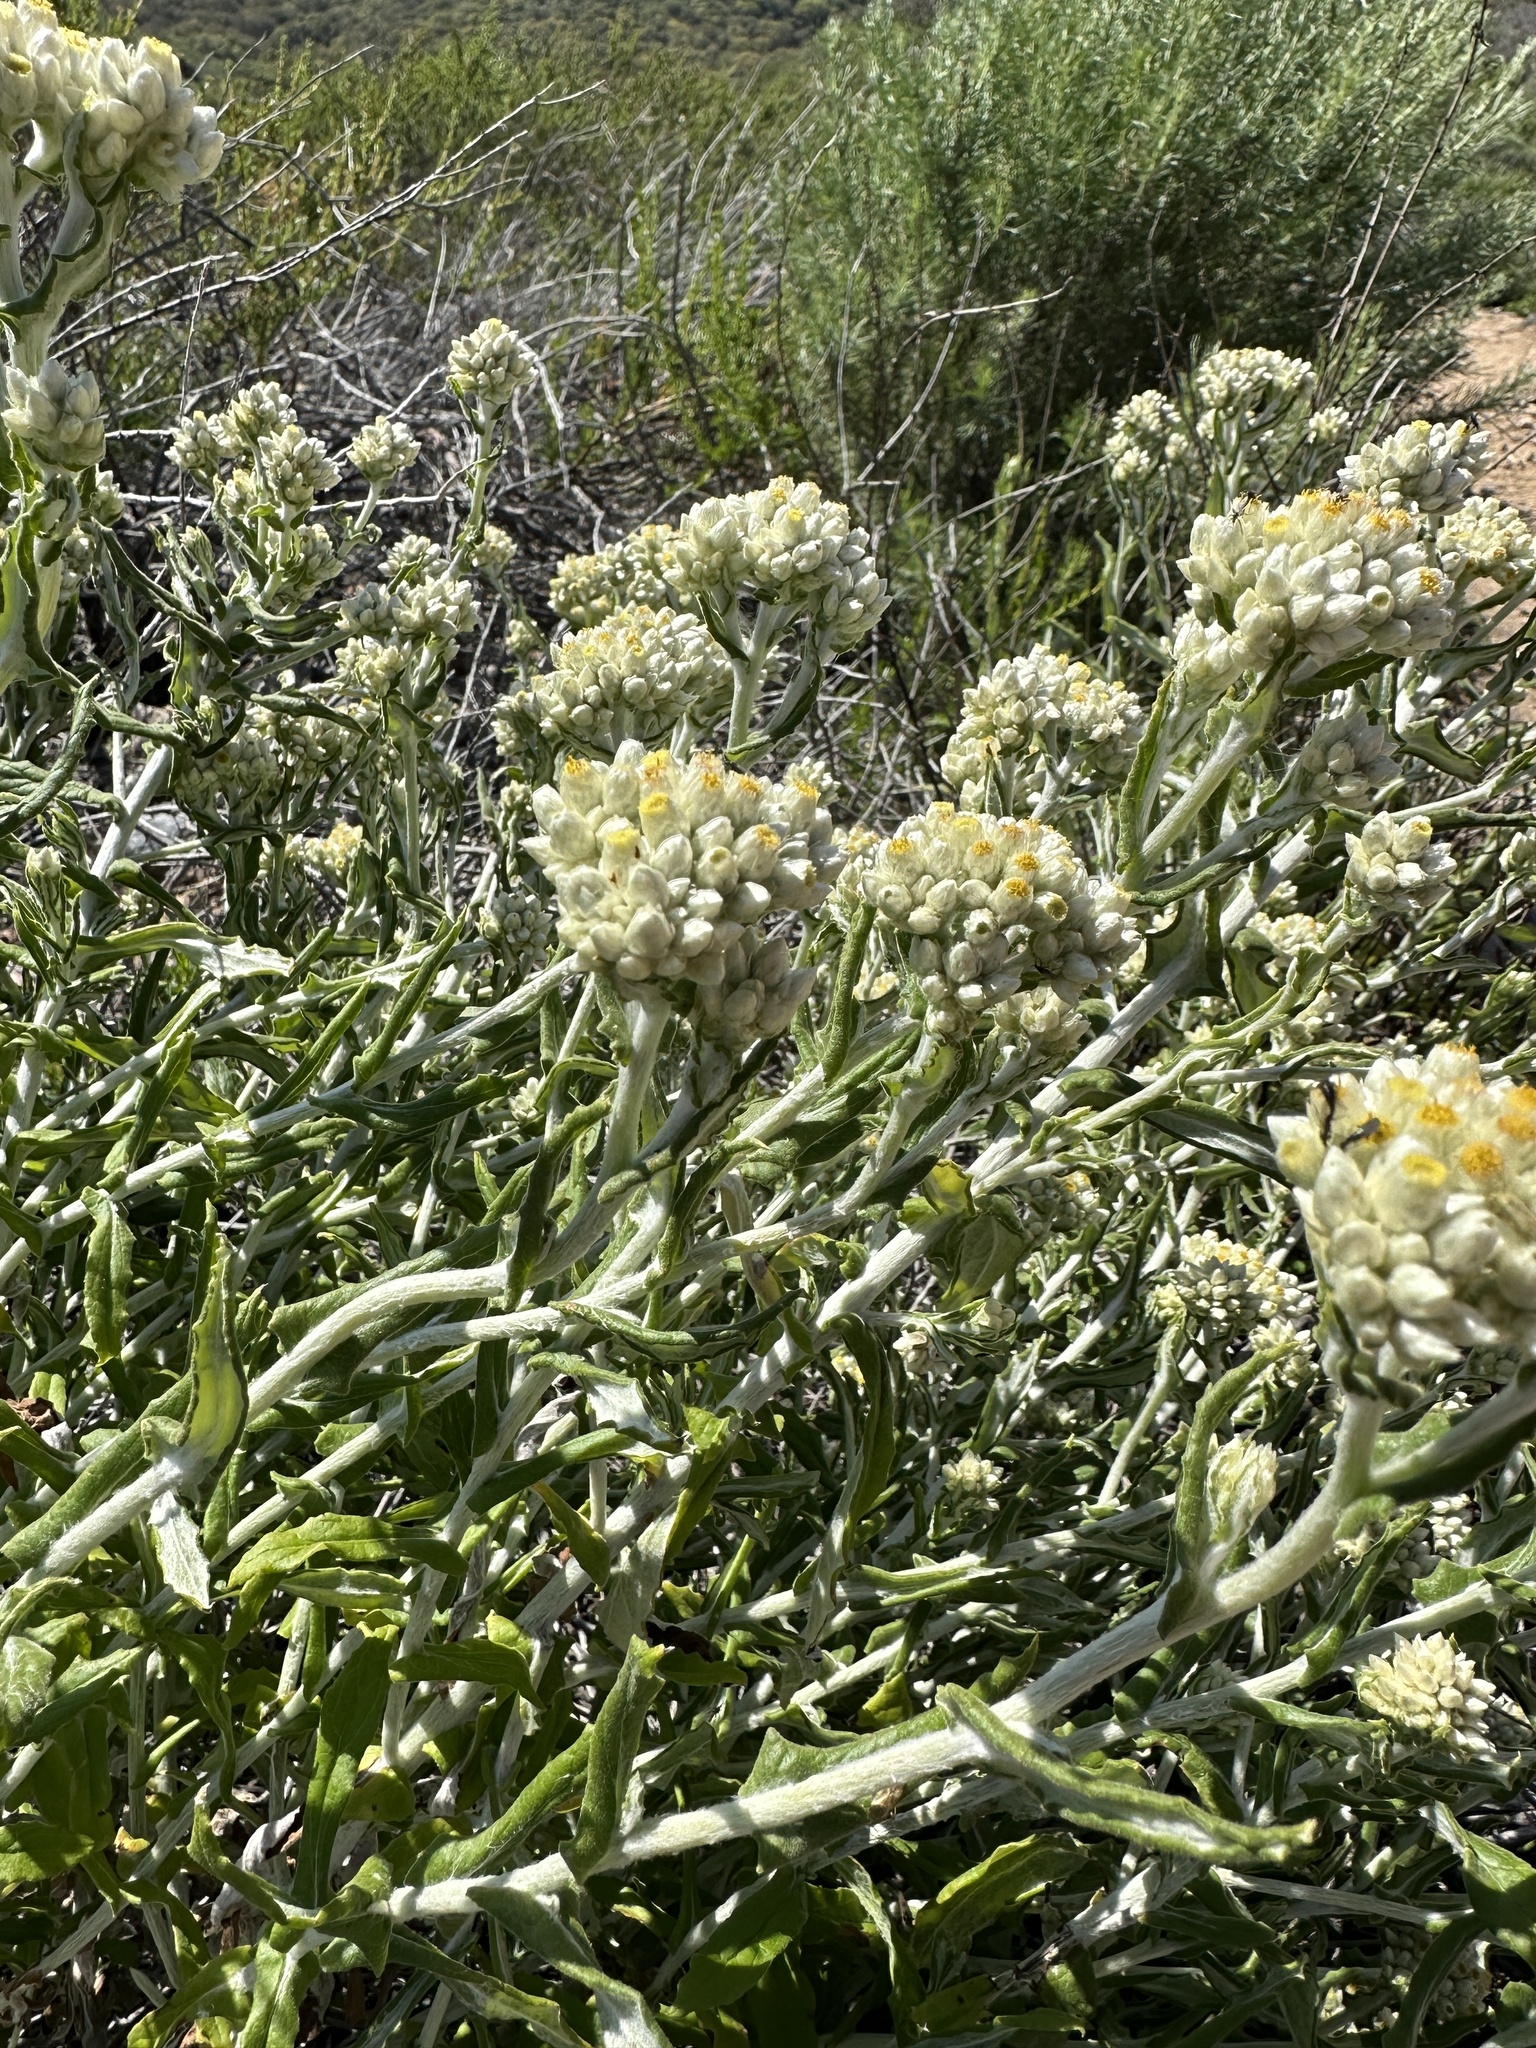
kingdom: Plantae
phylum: Tracheophyta
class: Magnoliopsida
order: Asterales
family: Asteraceae
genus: Pseudognaphalium
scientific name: Pseudognaphalium biolettii
